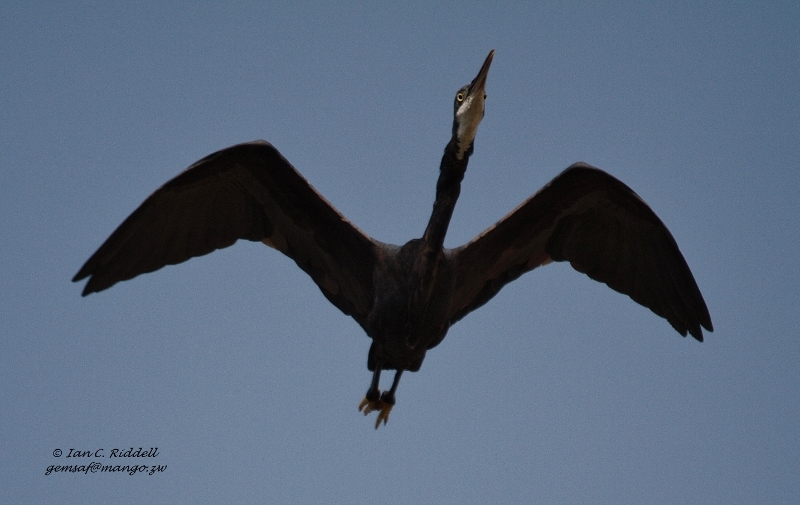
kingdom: Animalia
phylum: Chordata
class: Aves
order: Pelecaniformes
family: Ardeidae
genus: Egretta
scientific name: Egretta gularis
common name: Western reef-heron
